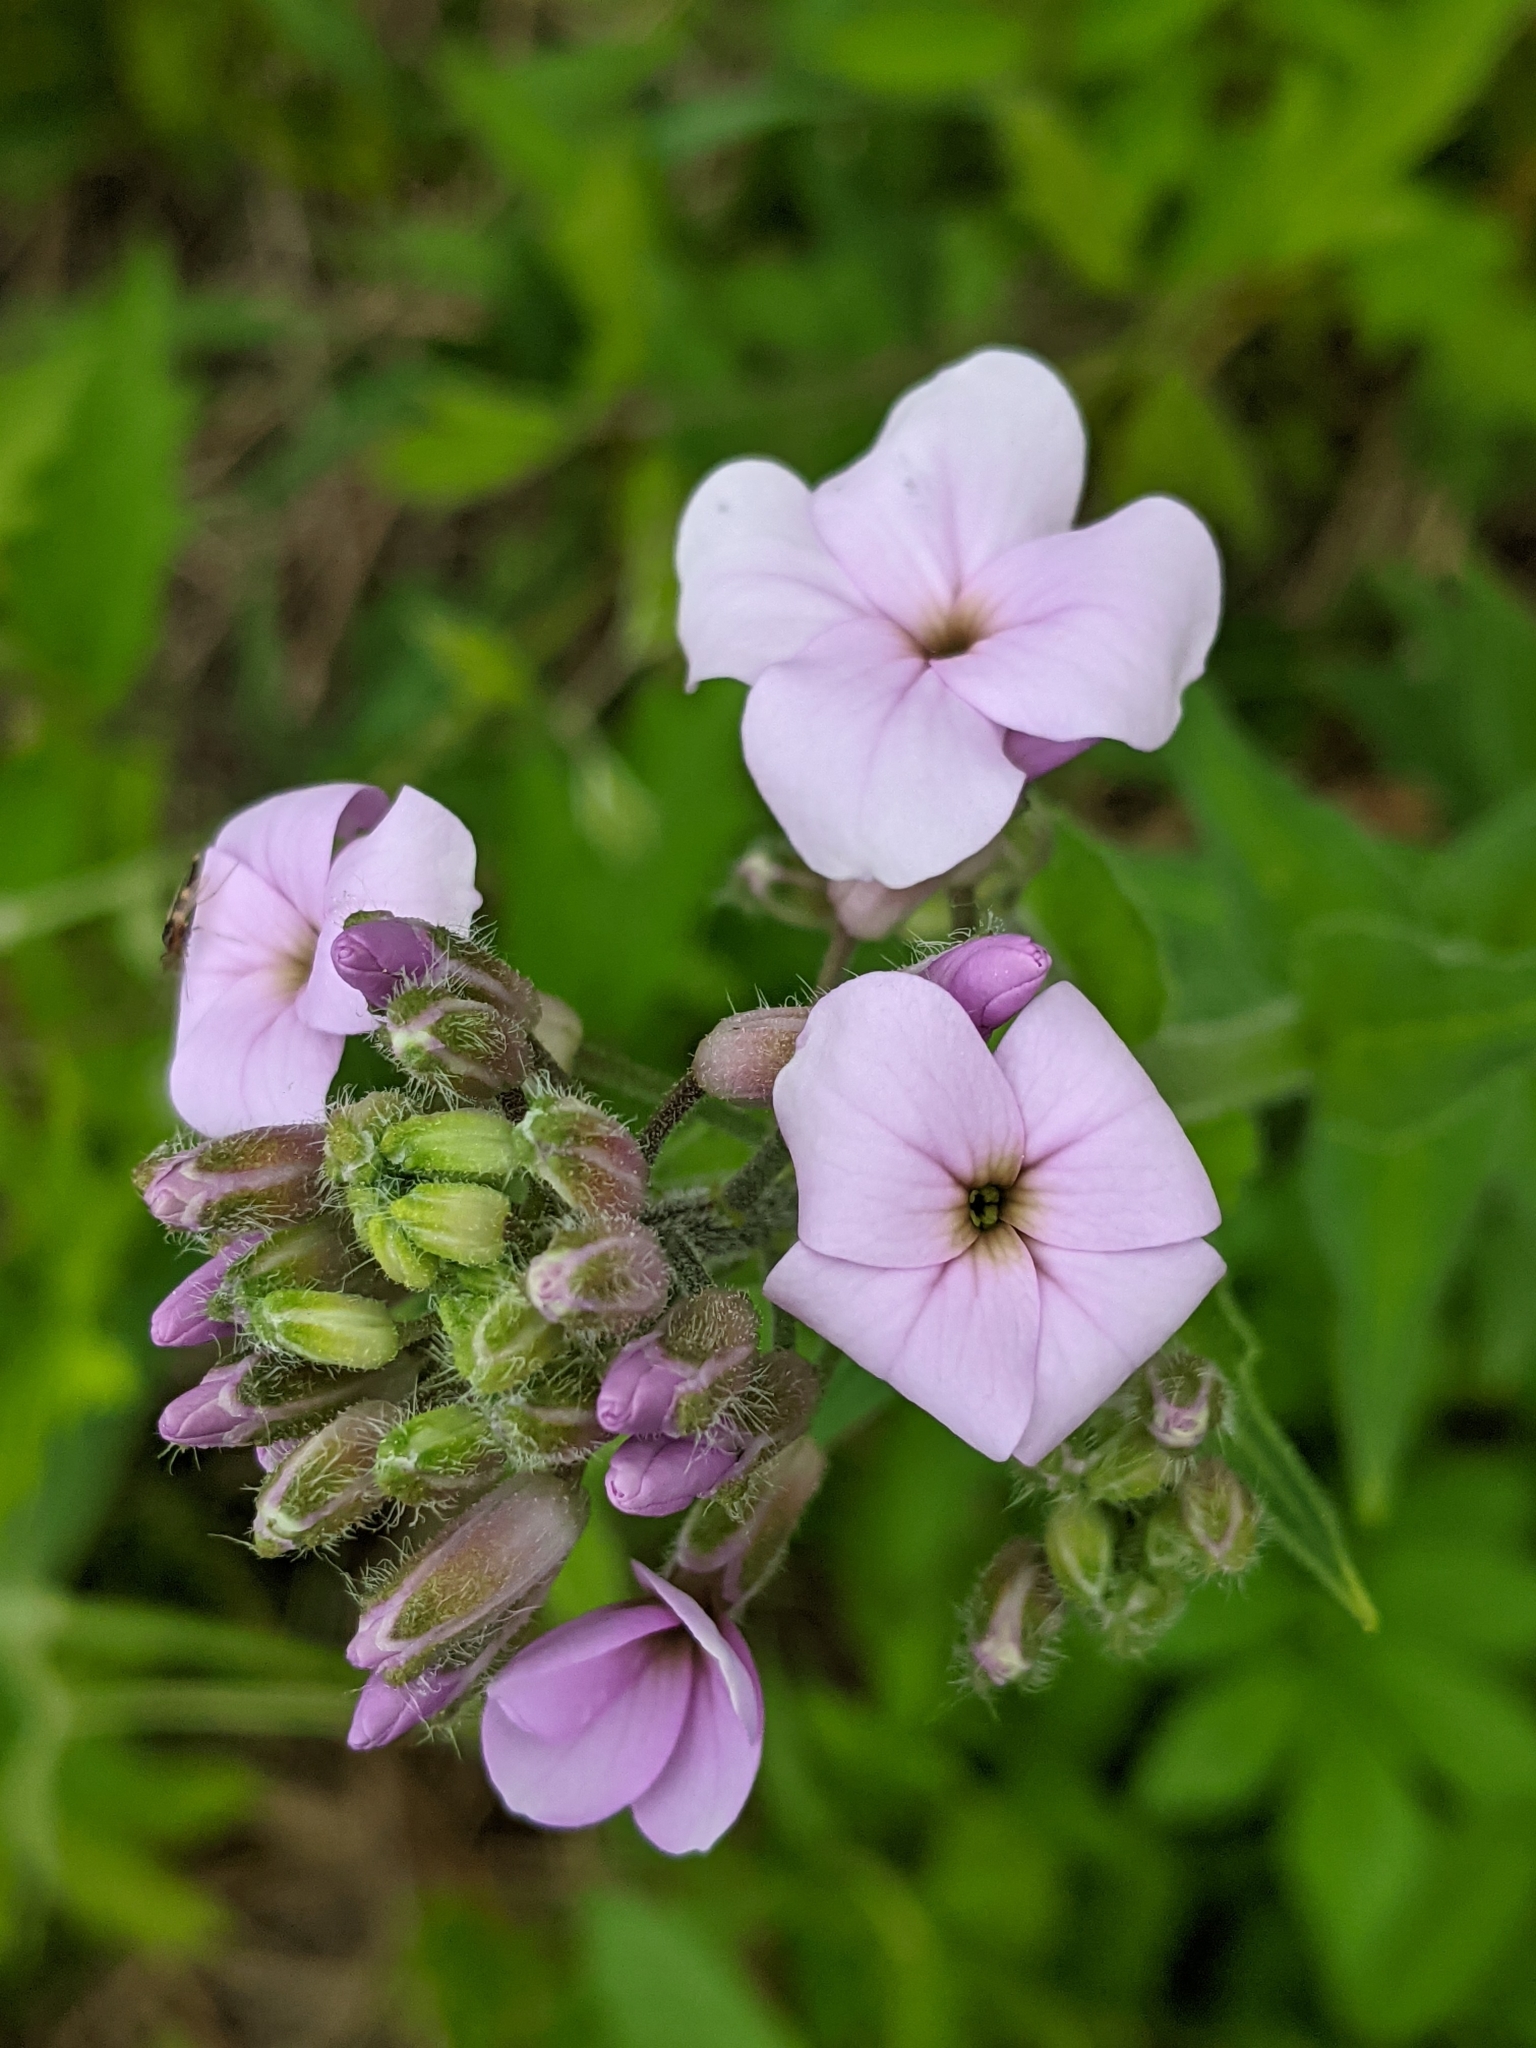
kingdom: Plantae
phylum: Tracheophyta
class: Magnoliopsida
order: Brassicales
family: Brassicaceae
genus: Hesperis
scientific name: Hesperis matronalis
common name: Dame's-violet
